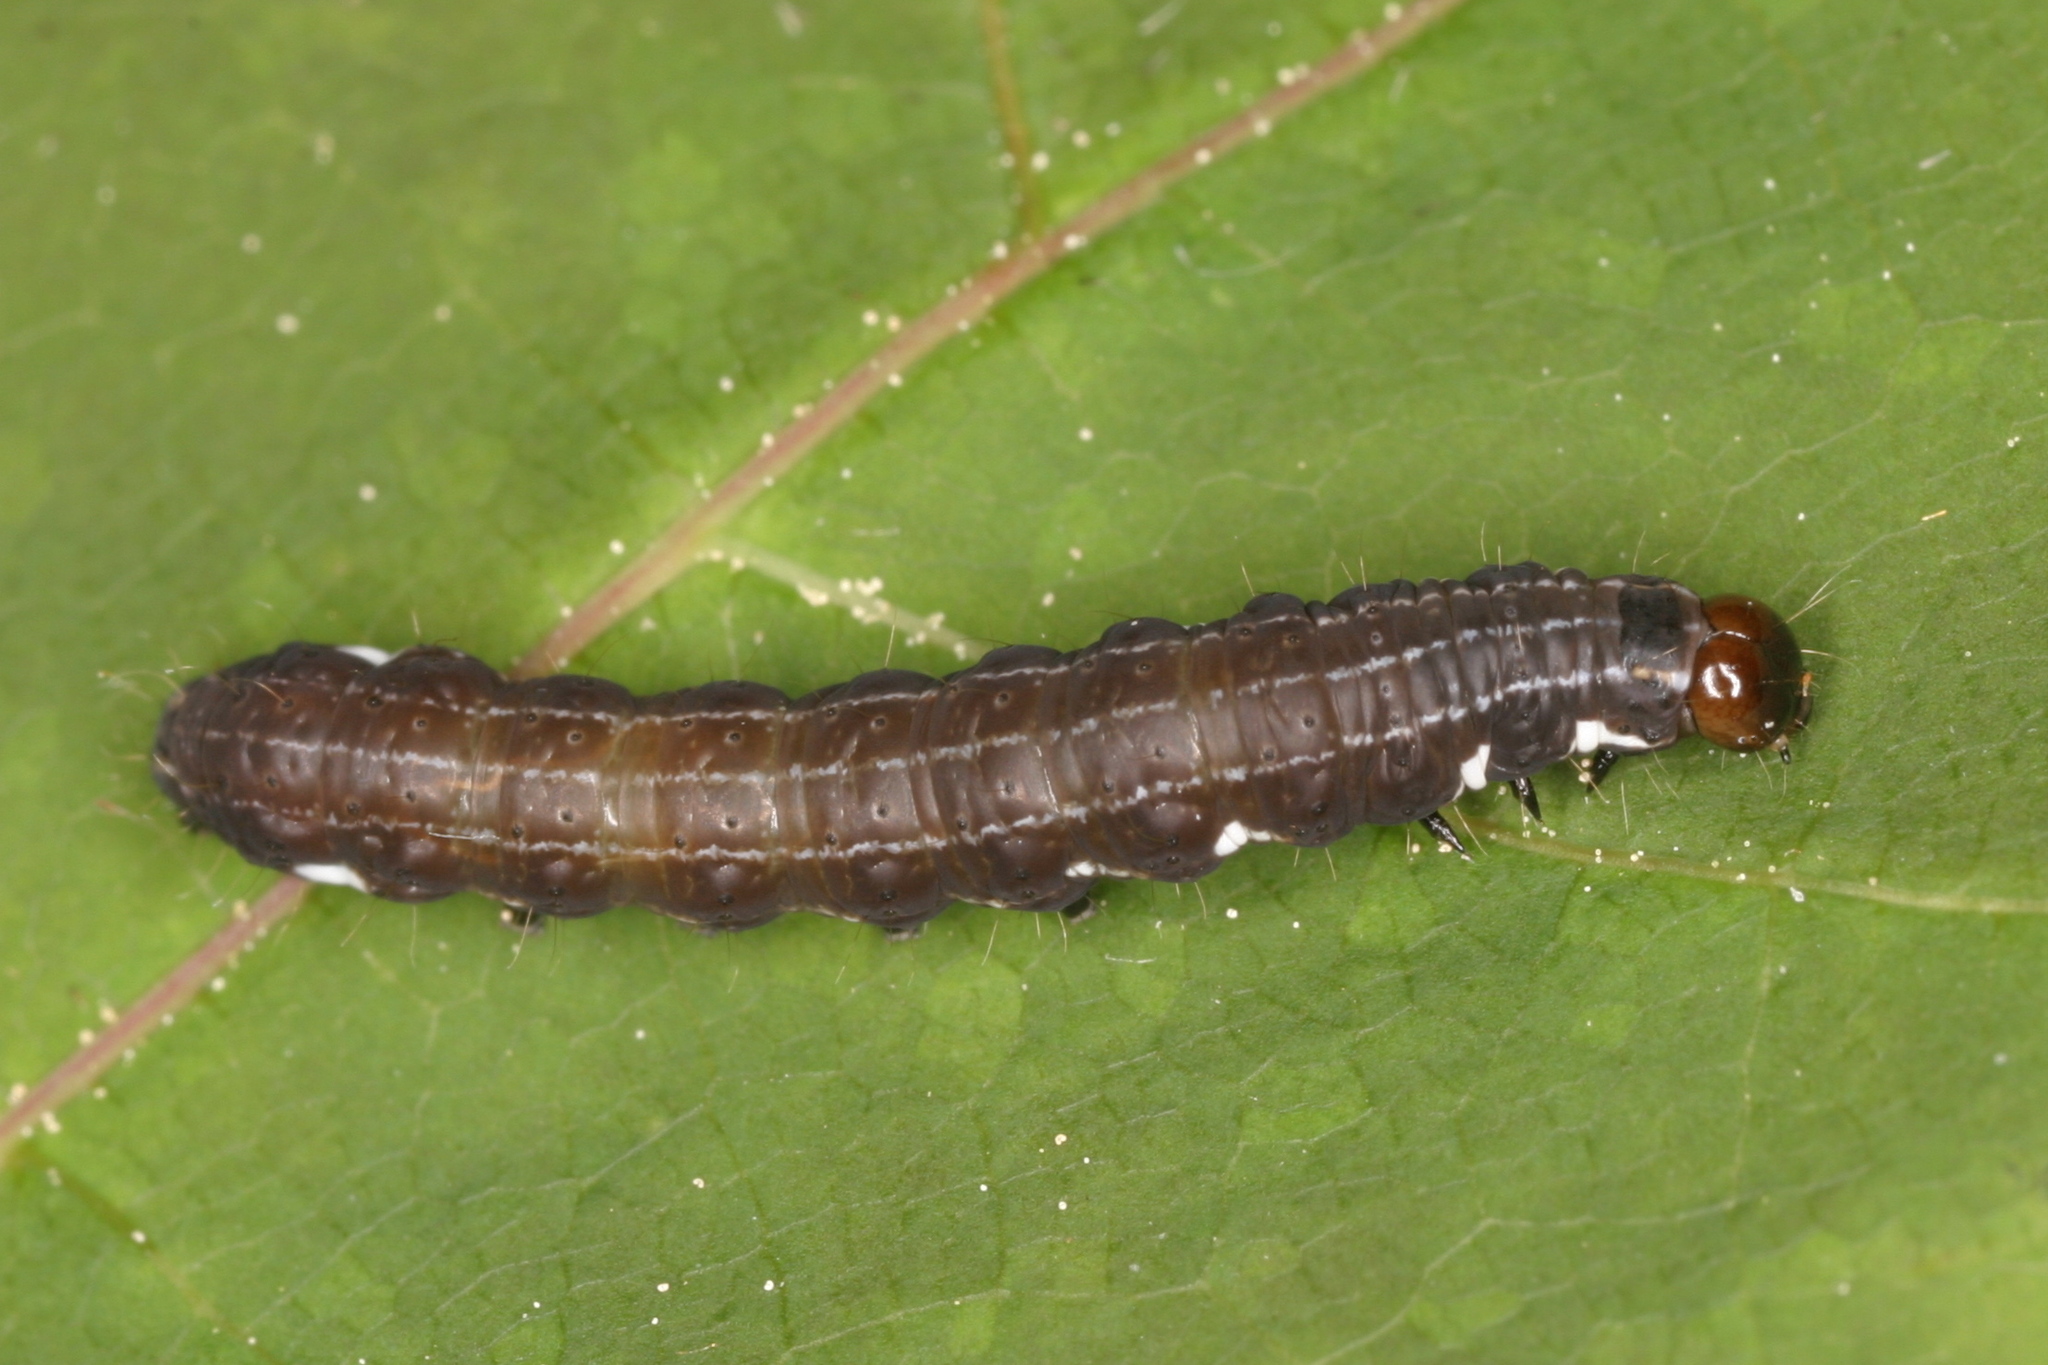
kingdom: Animalia
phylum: Arthropoda
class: Insecta
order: Lepidoptera
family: Noctuidae
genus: Eupsilia
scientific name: Eupsilia transversa
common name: Satellite
